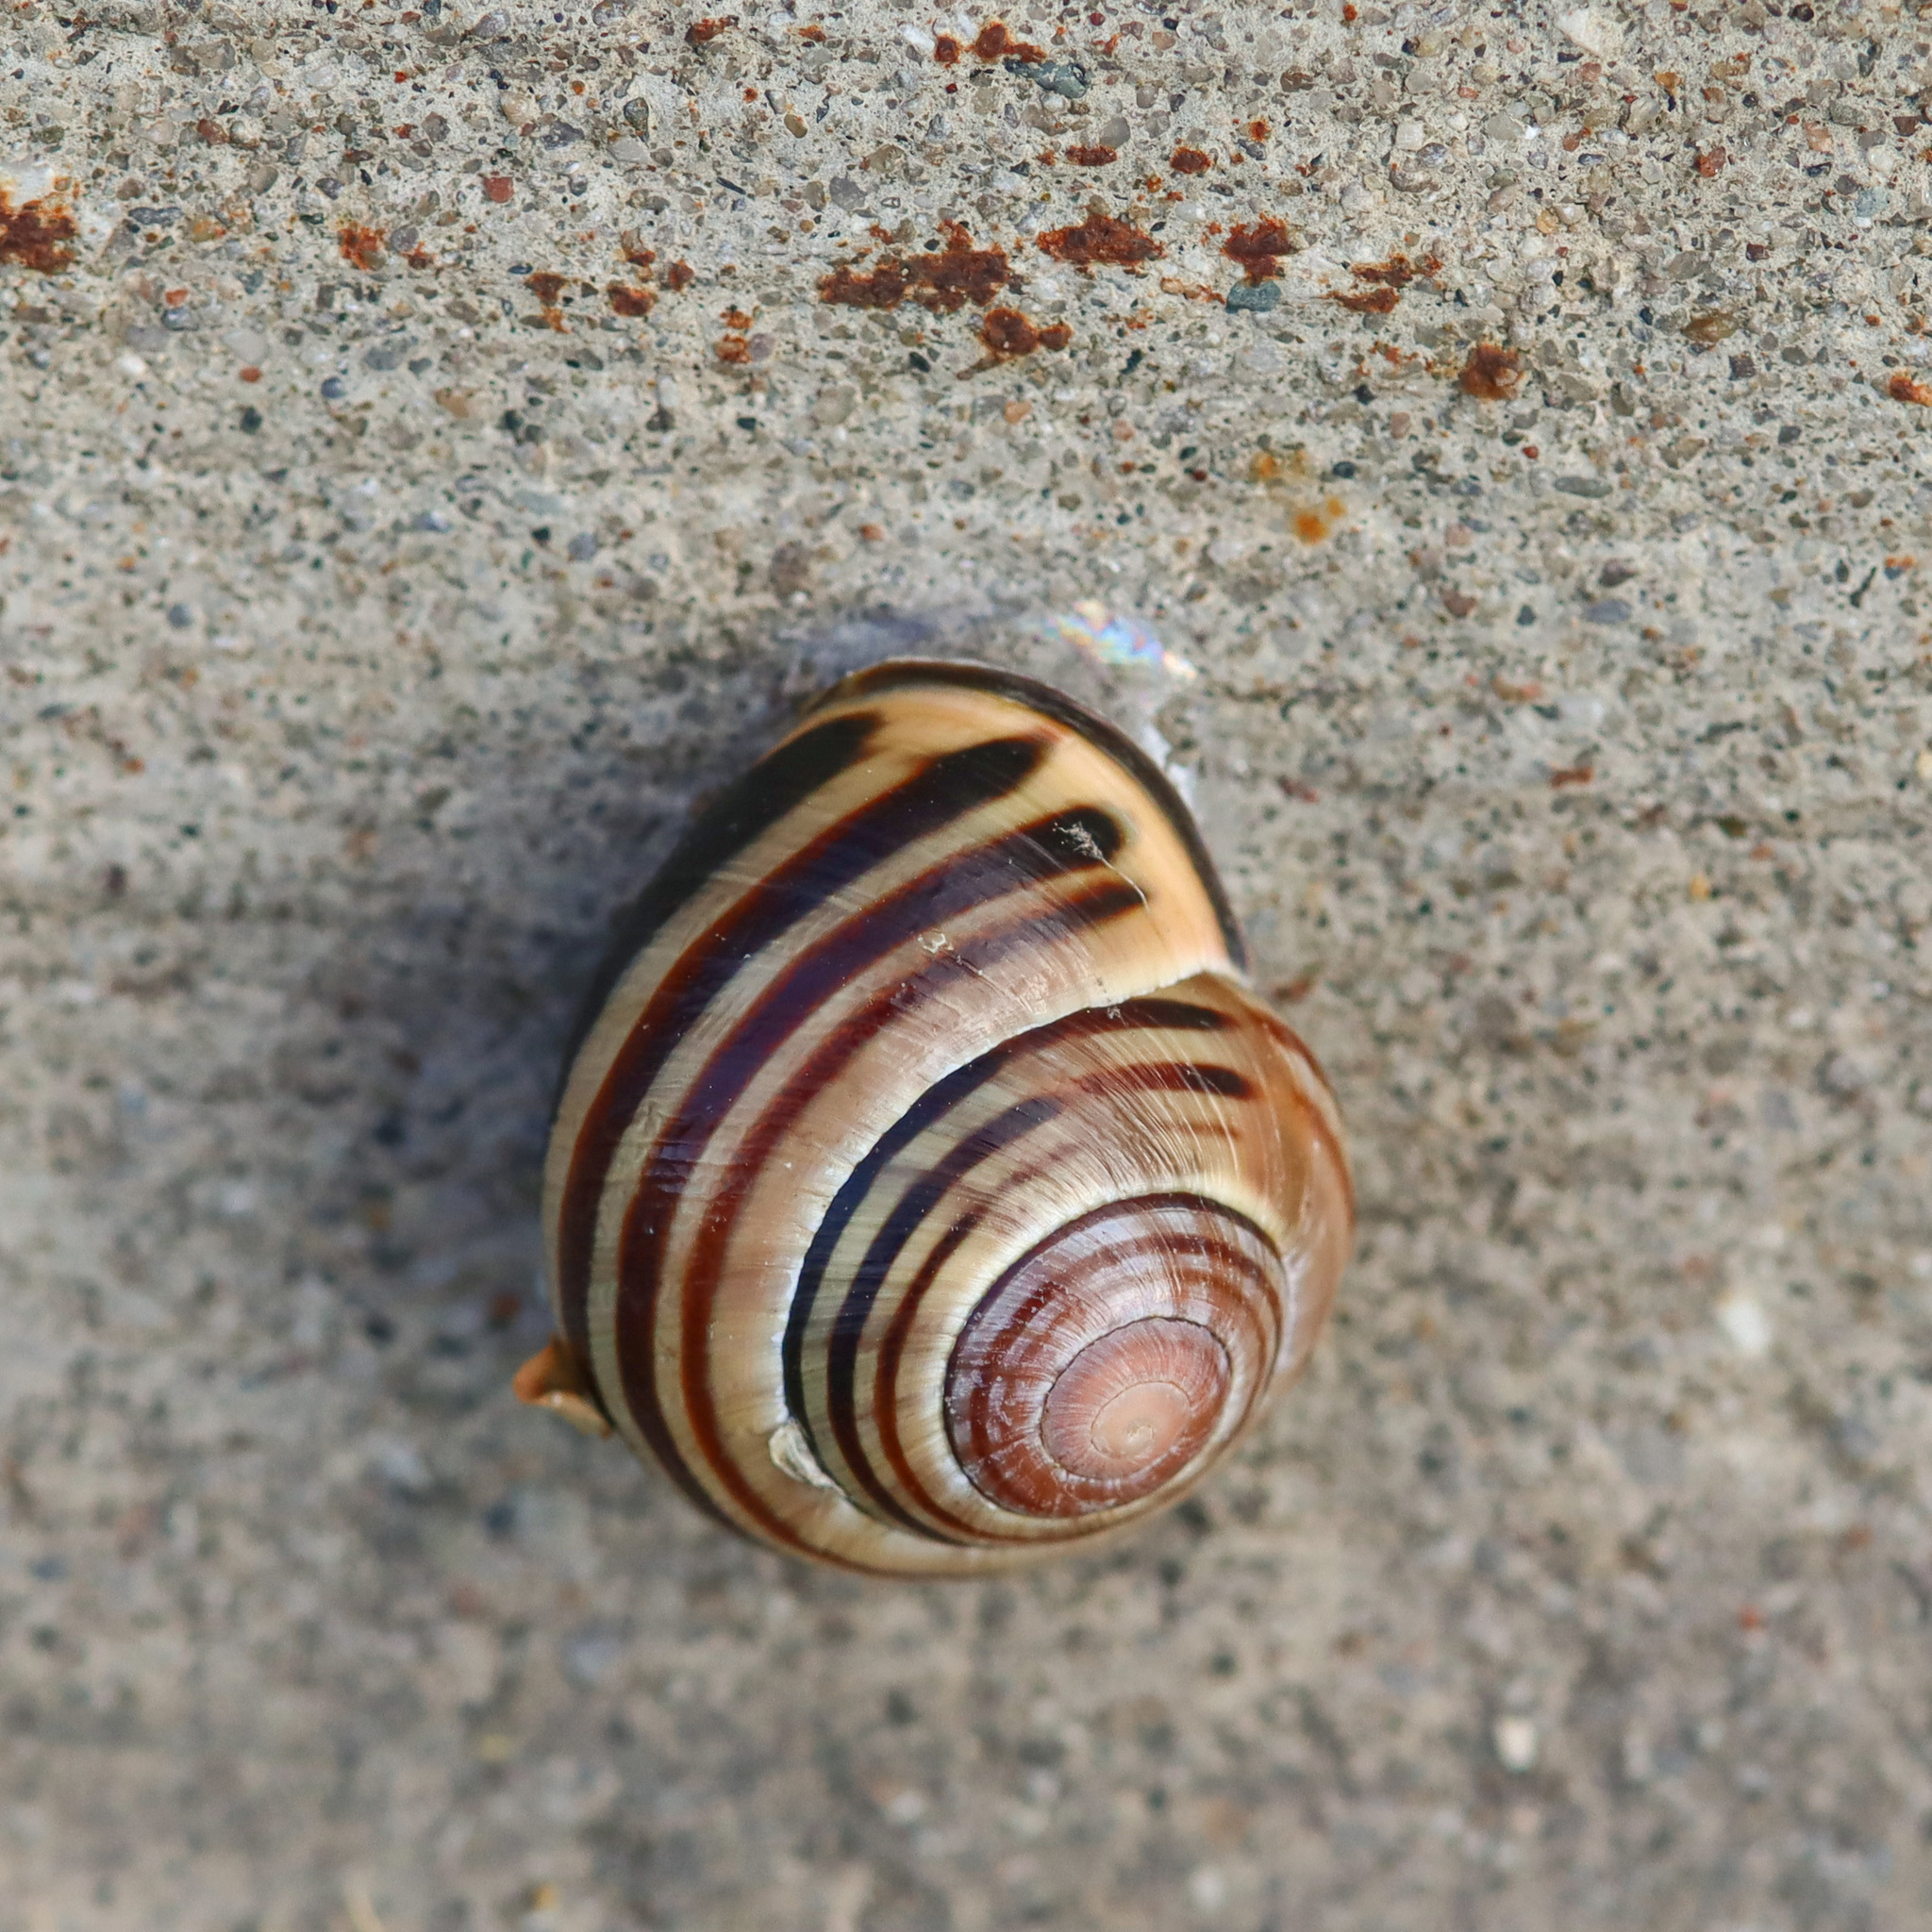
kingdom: Animalia
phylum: Mollusca
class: Gastropoda
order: Stylommatophora
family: Helicidae
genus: Cepaea
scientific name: Cepaea nemoralis
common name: Grovesnail
